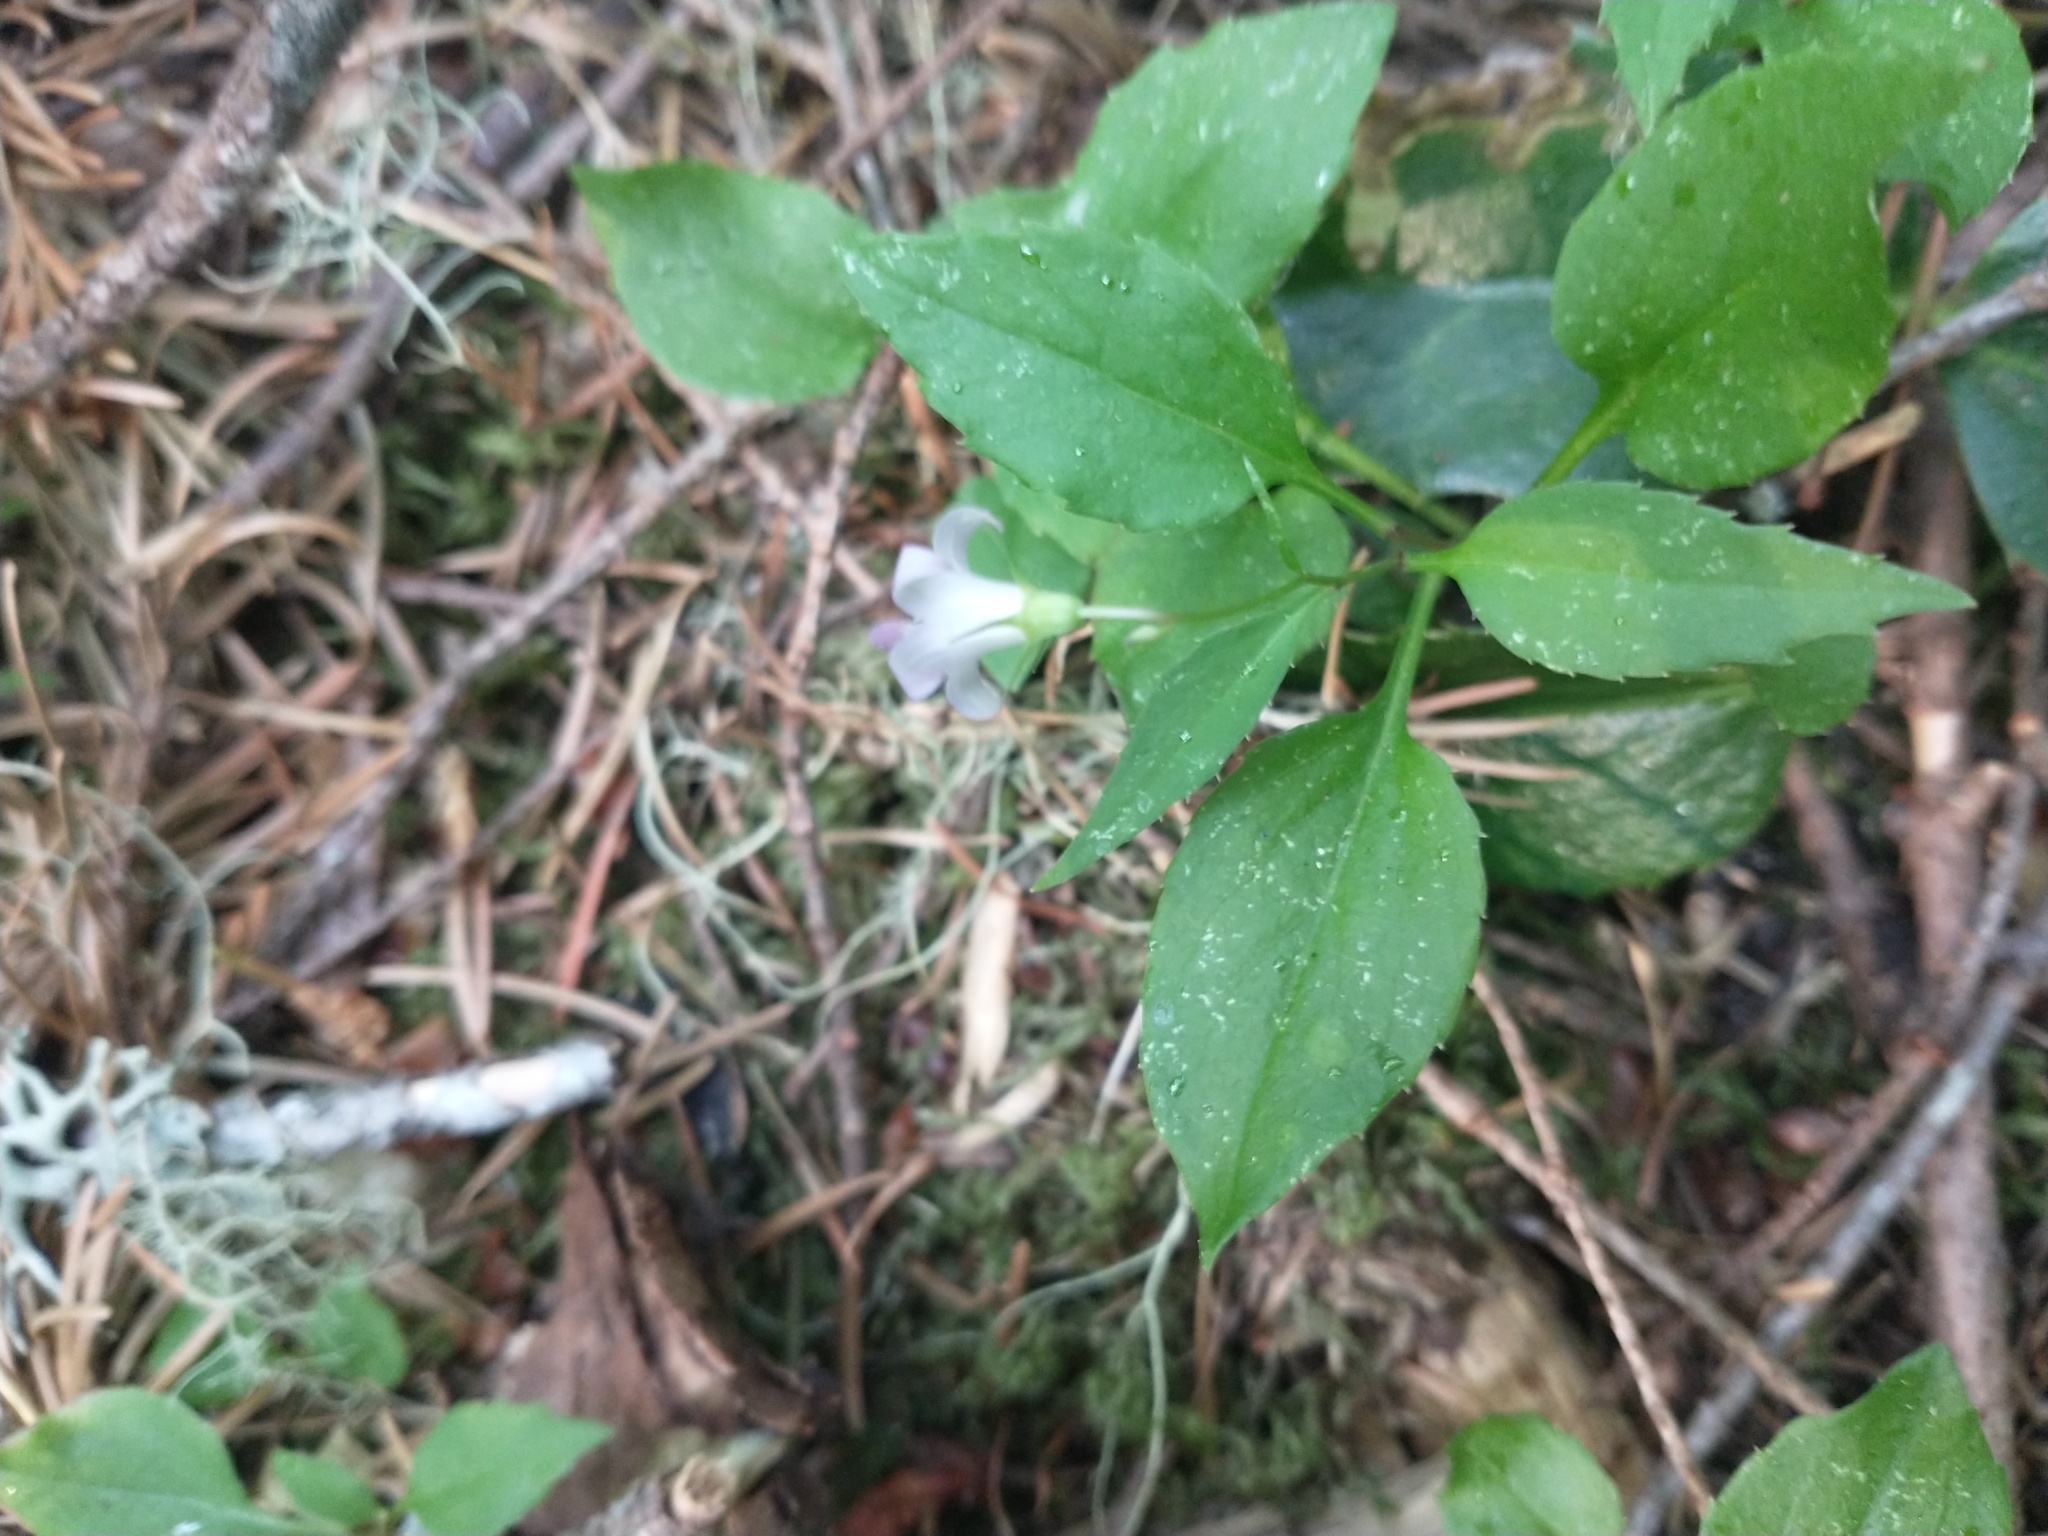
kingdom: Plantae
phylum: Tracheophyta
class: Magnoliopsida
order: Asterales
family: Campanulaceae
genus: Campanula
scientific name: Campanula scouleri
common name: Scouler's harebell
